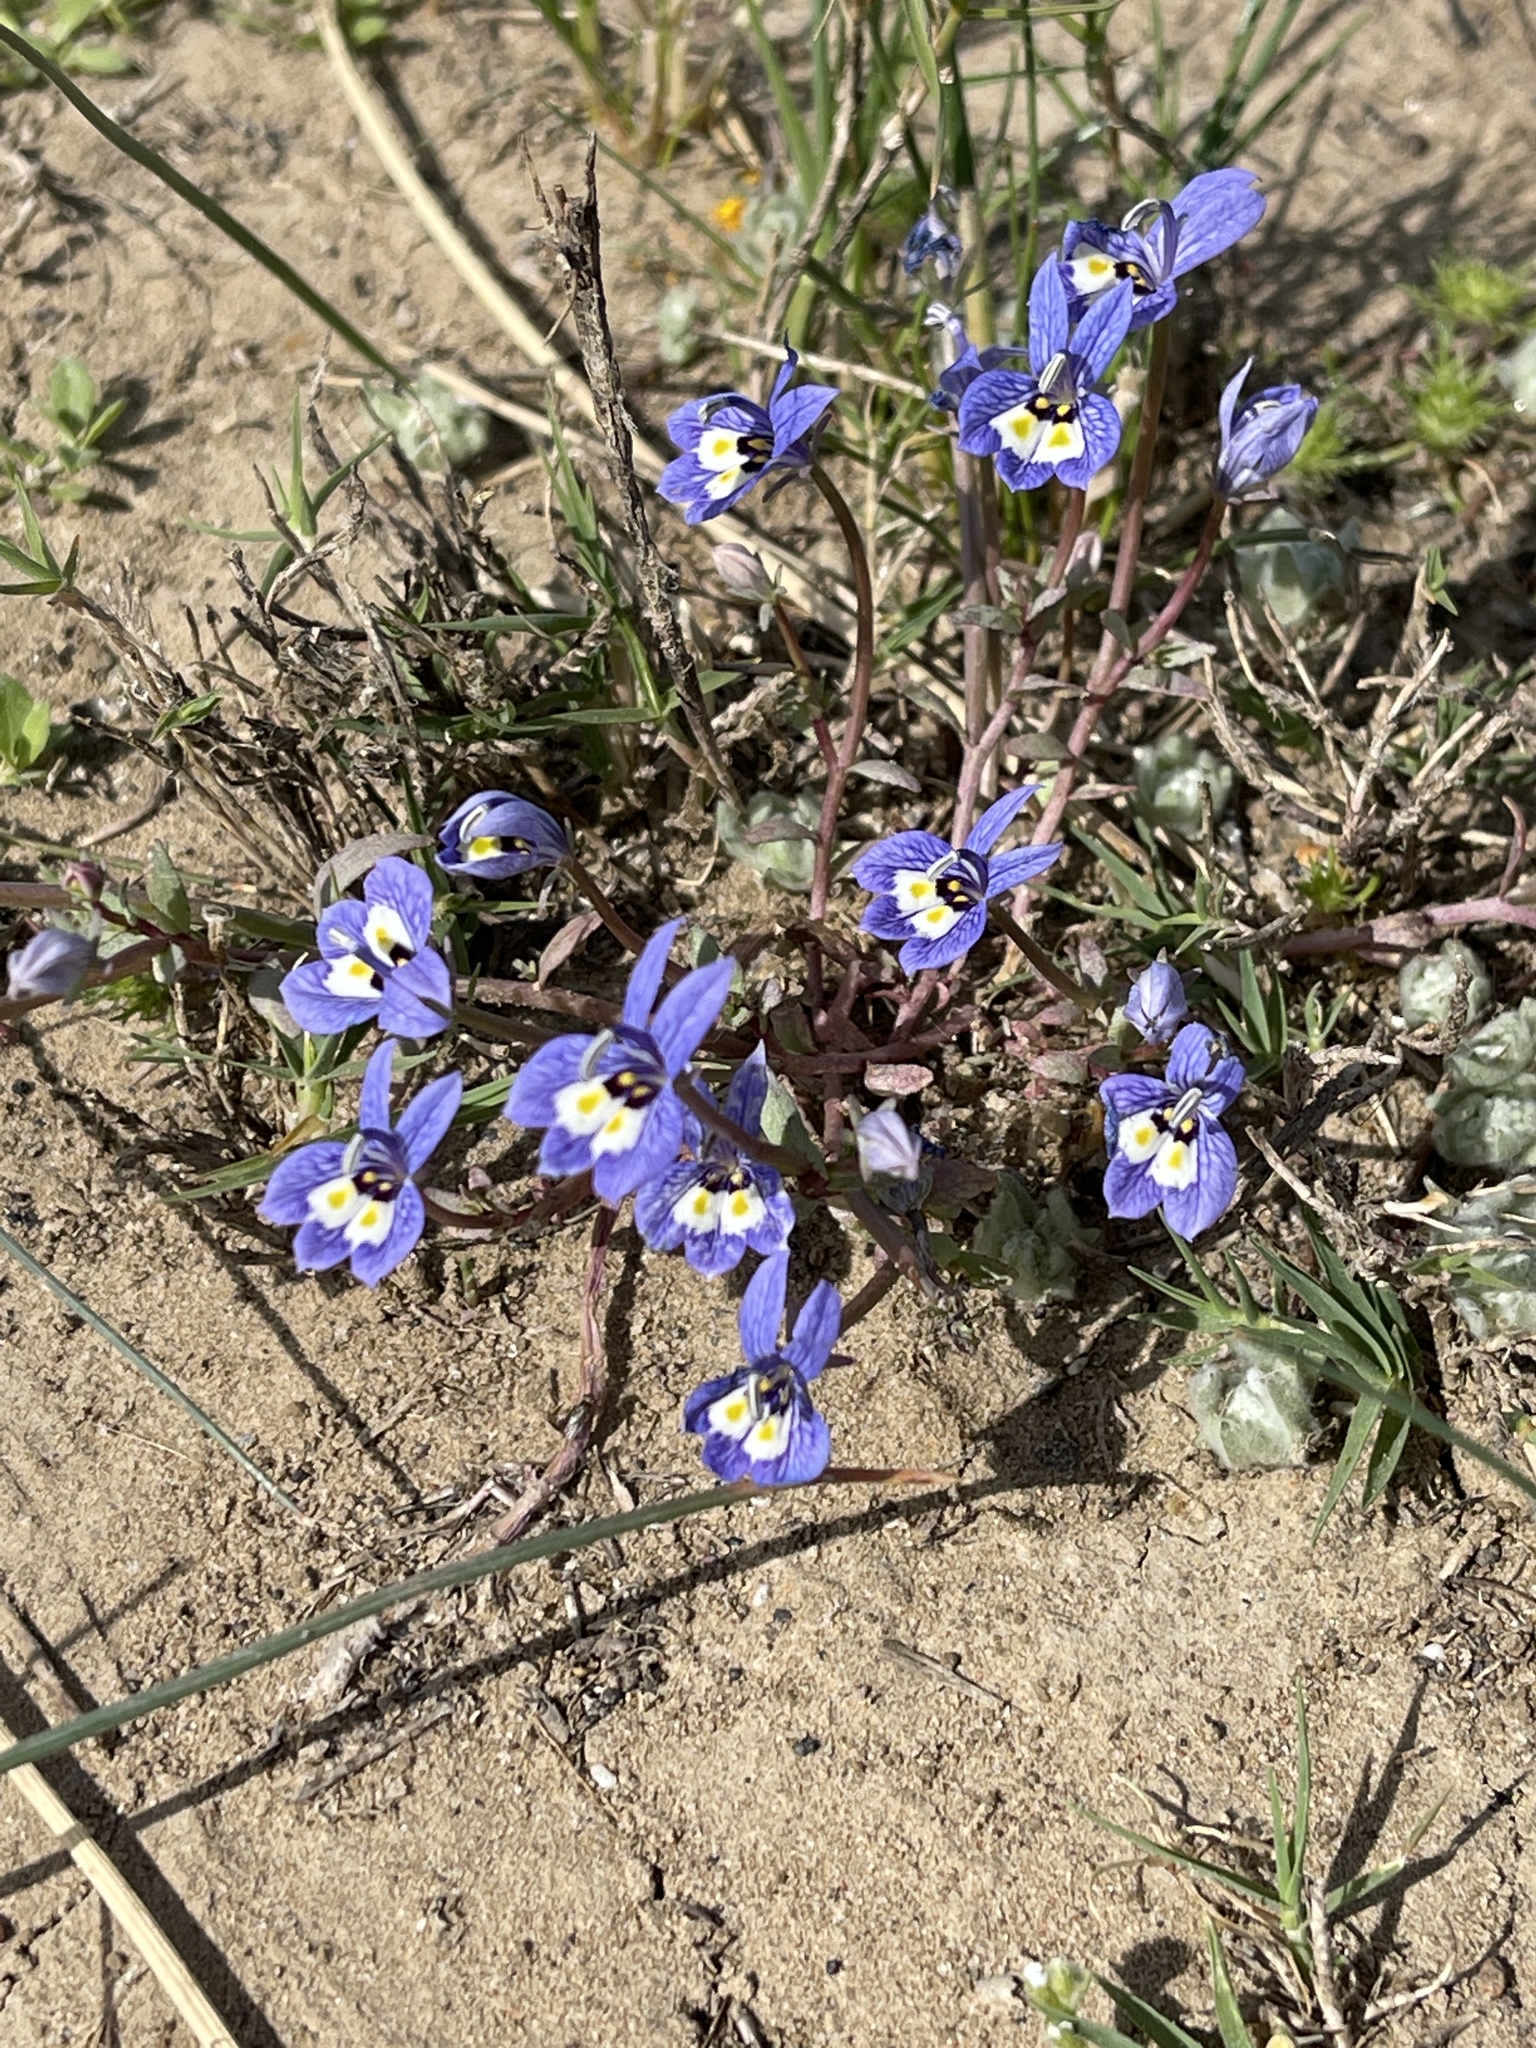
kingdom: Plantae
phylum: Tracheophyta
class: Magnoliopsida
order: Asterales
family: Campanulaceae
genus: Downingia
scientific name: Downingia insignis
